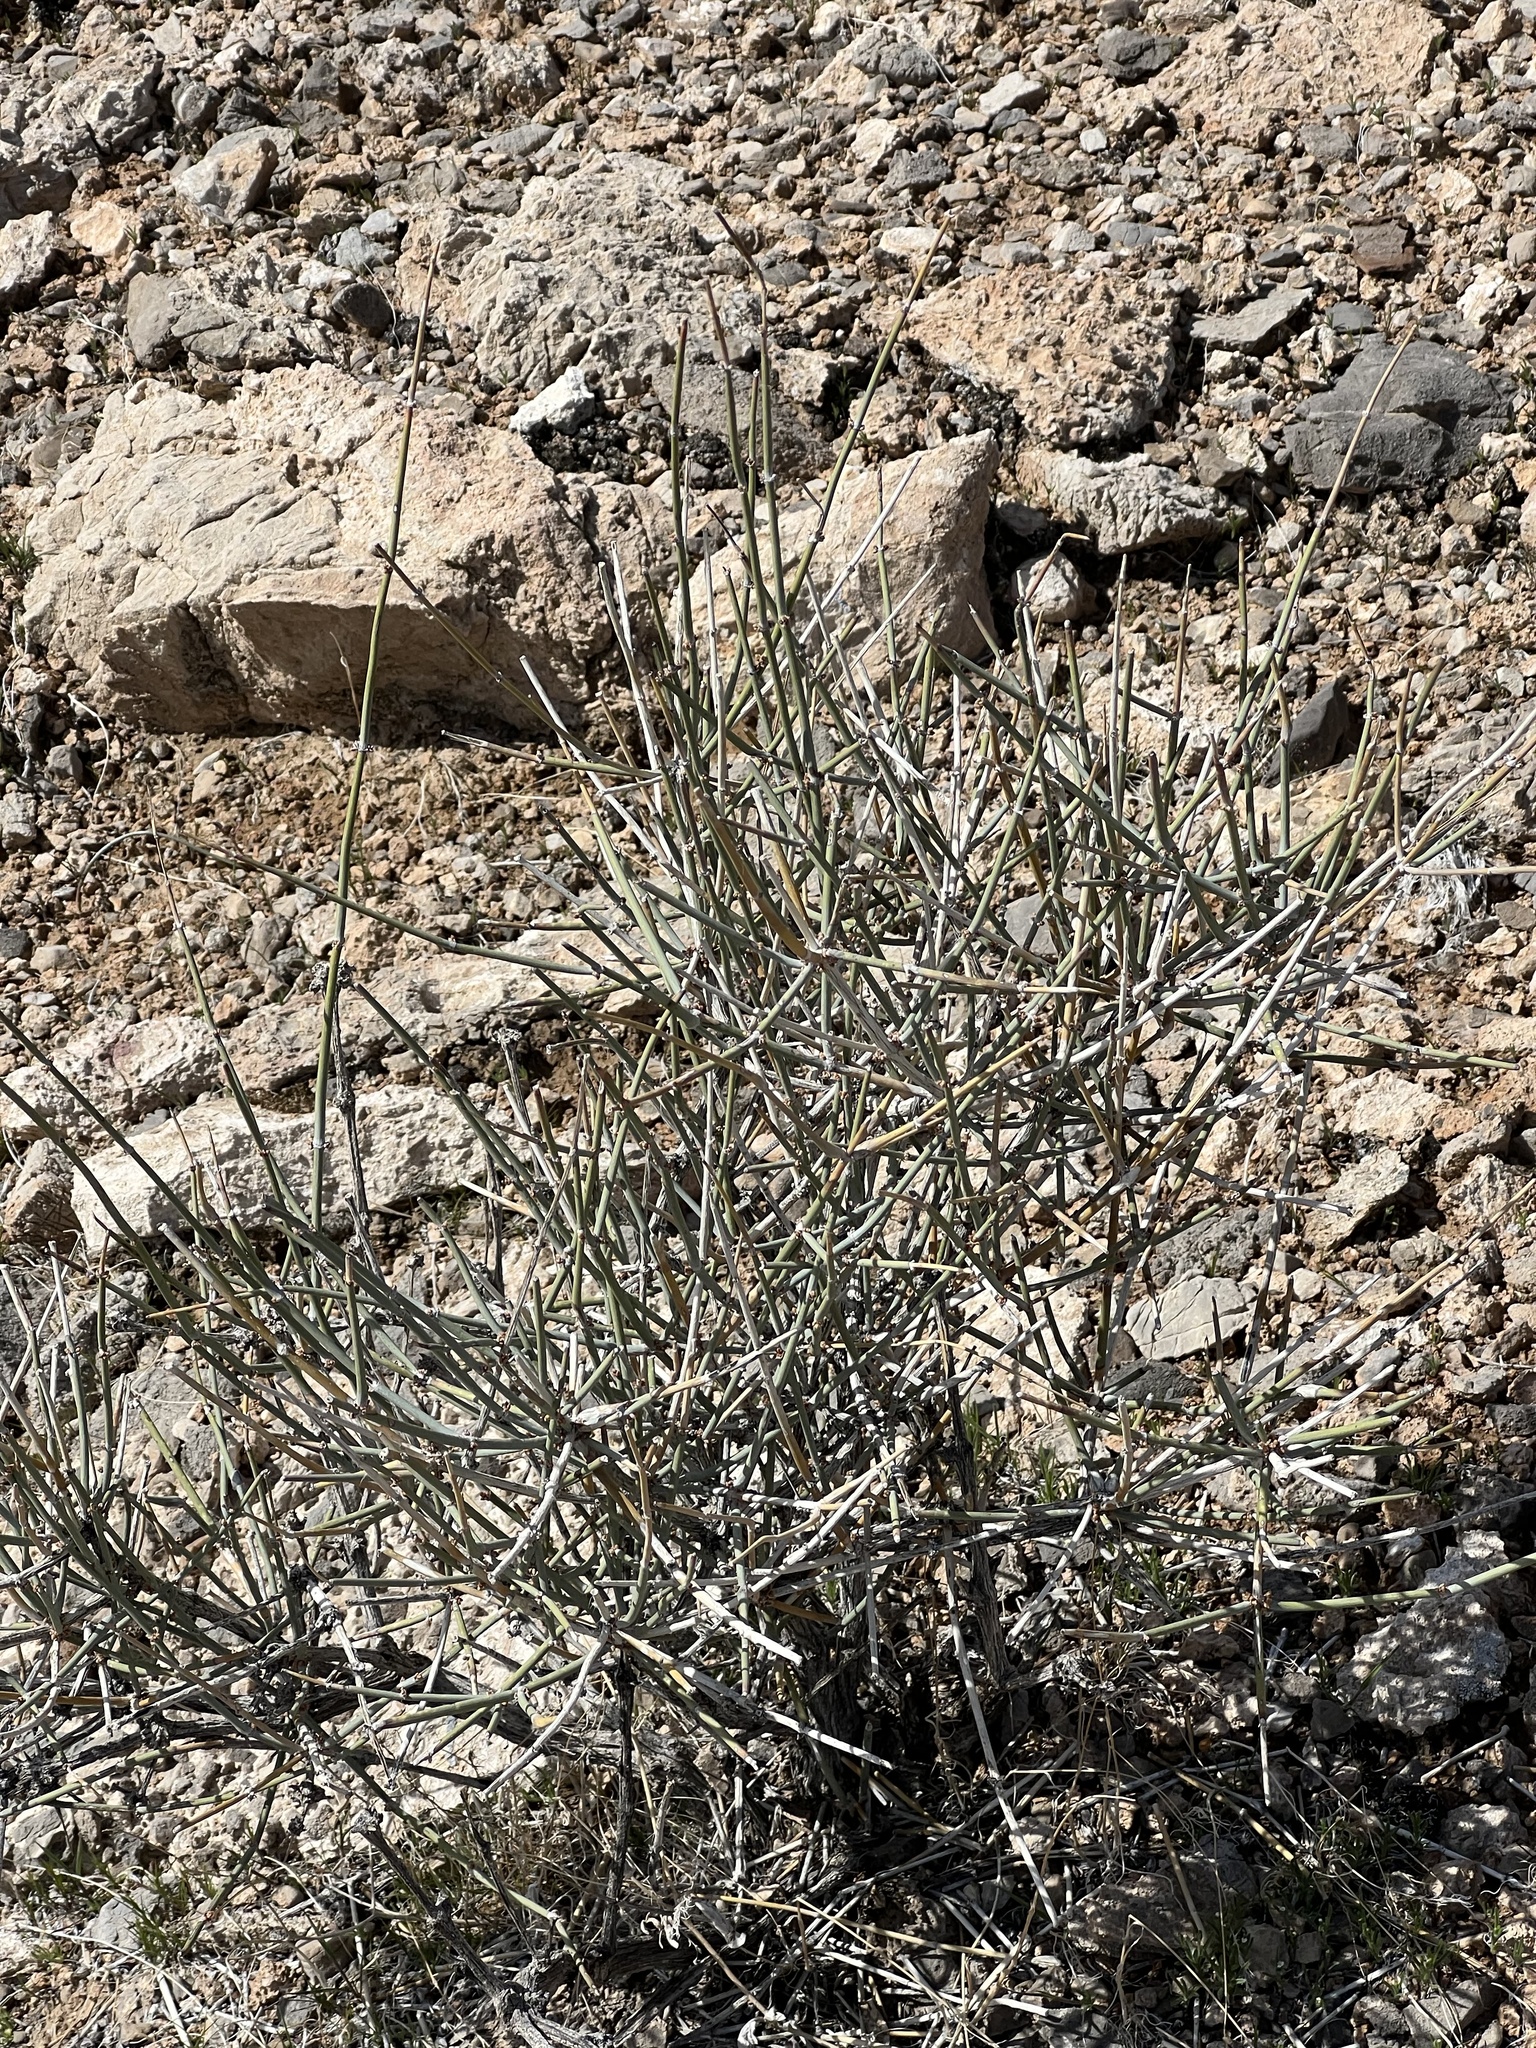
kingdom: Plantae
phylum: Tracheophyta
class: Gnetopsida
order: Ephedrales
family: Ephedraceae
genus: Ephedra
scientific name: Ephedra nevadensis
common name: Gray ephedra
